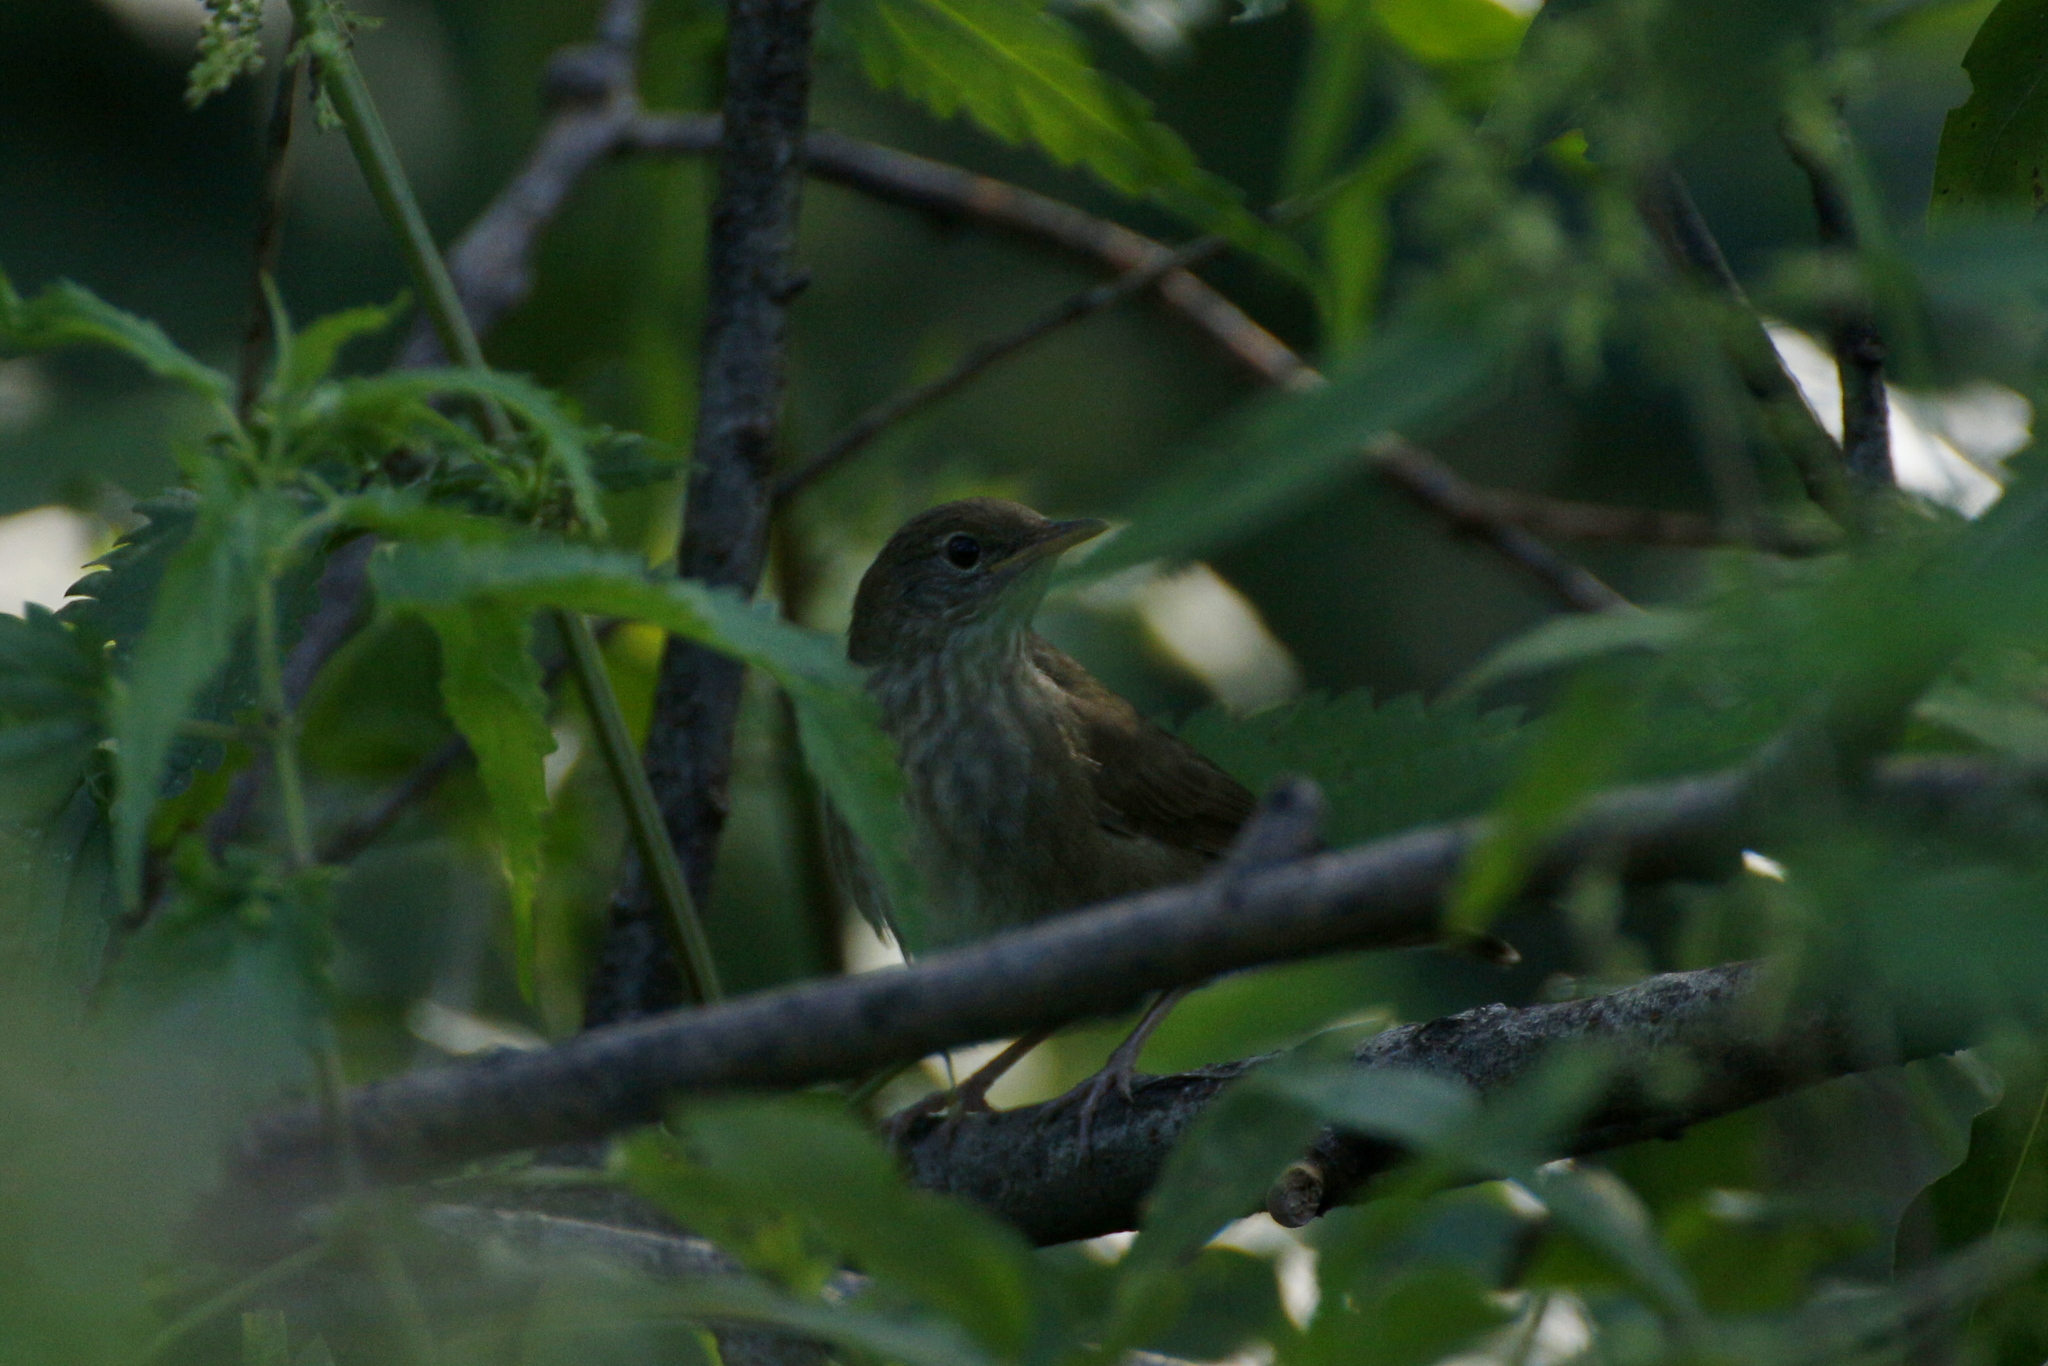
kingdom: Animalia
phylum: Chordata
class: Aves
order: Passeriformes
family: Muscicapidae
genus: Luscinia
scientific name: Luscinia luscinia
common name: Thrush nightingale
